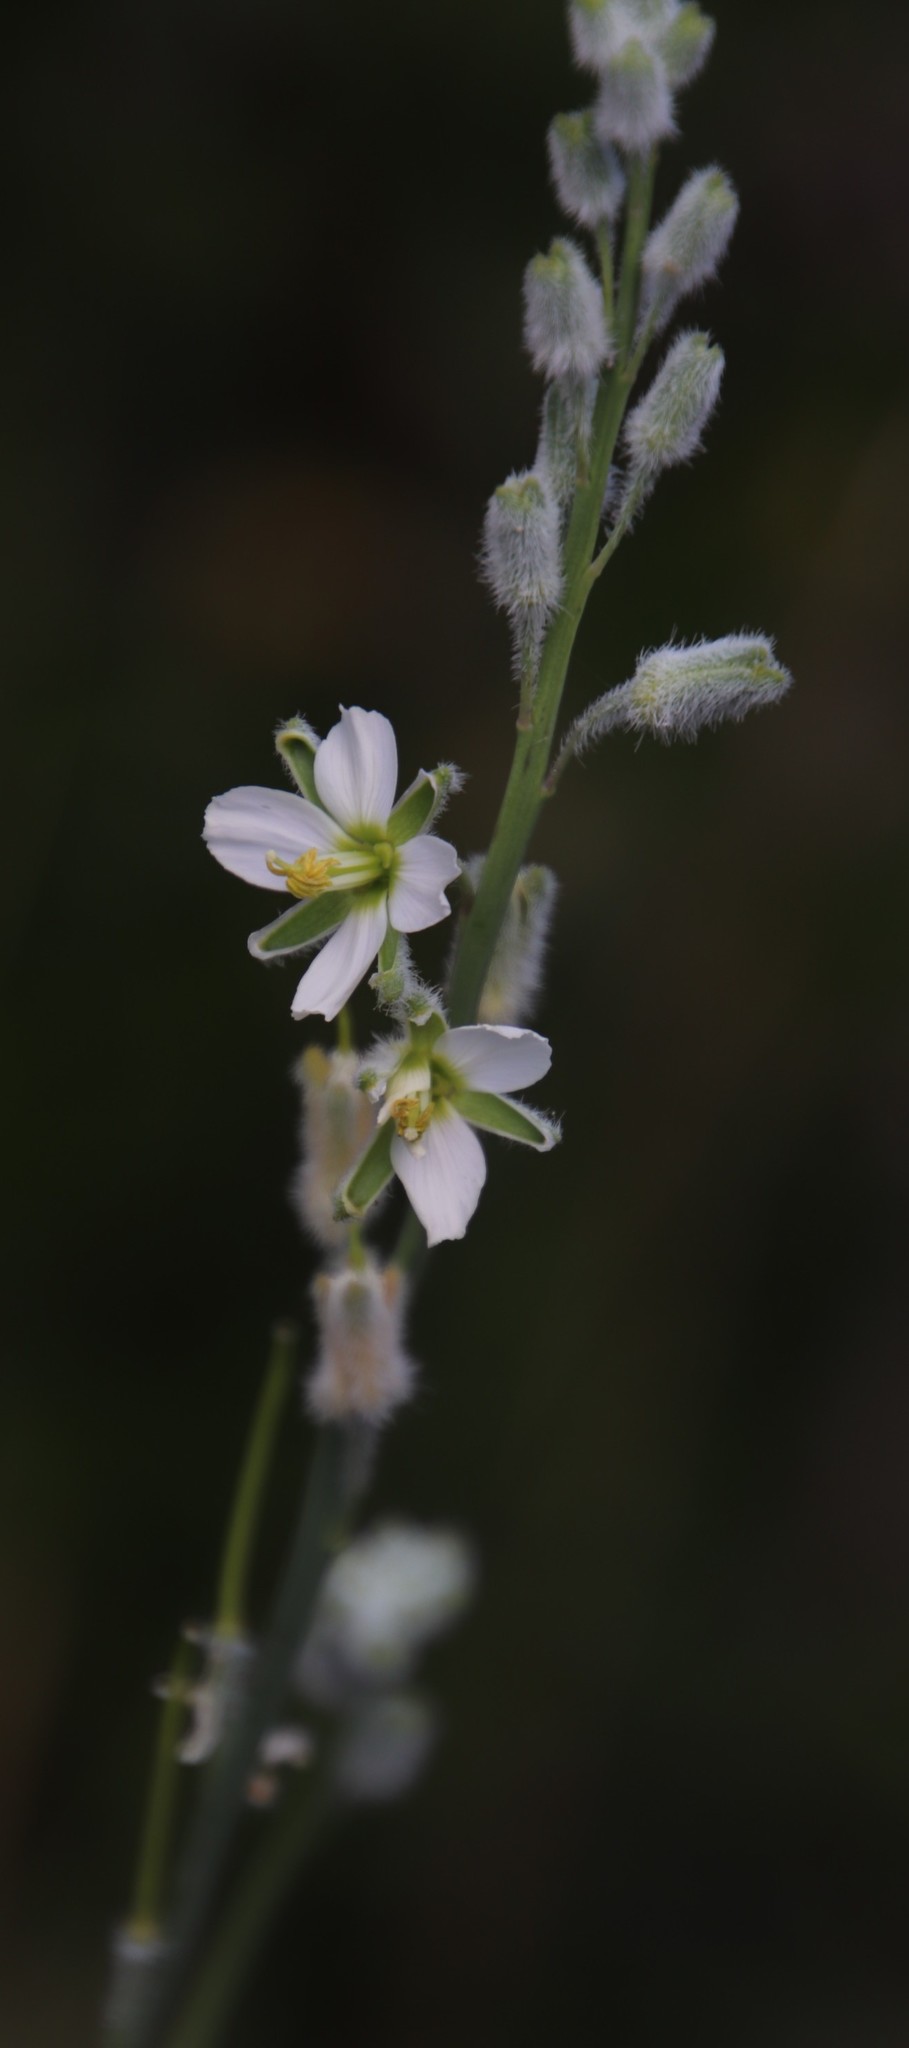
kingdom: Plantae
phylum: Tracheophyta
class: Magnoliopsida
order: Brassicales
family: Brassicaceae
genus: Heliophila
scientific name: Heliophila linearis
